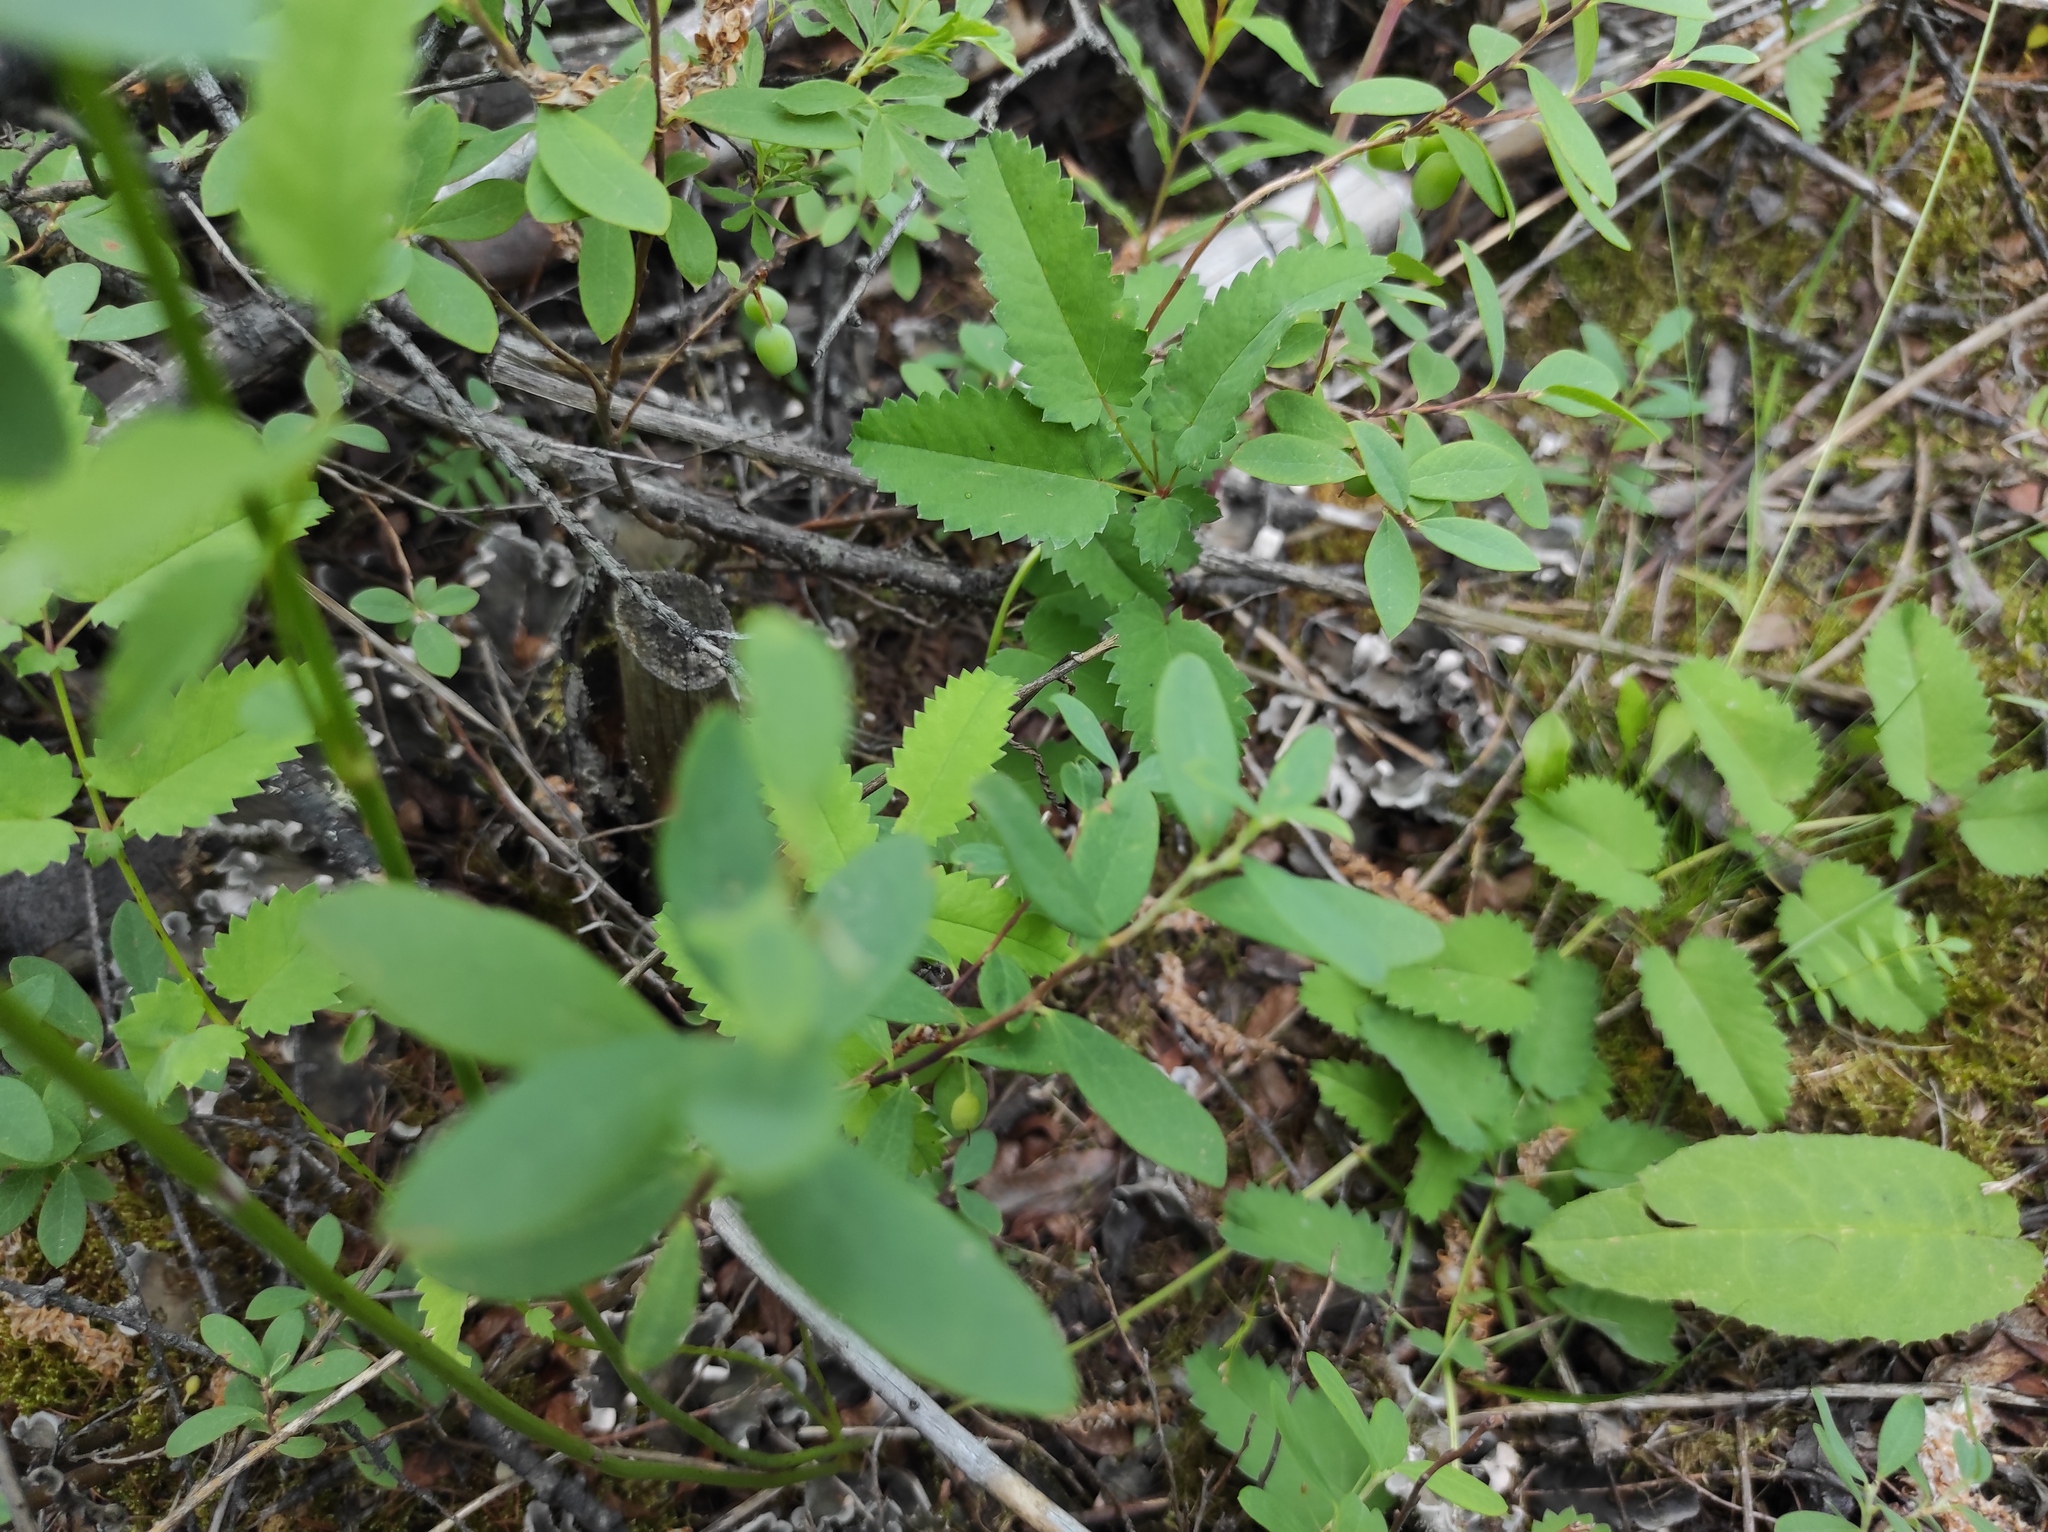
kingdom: Plantae
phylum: Tracheophyta
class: Magnoliopsida
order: Rosales
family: Rosaceae
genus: Sanguisorba
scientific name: Sanguisorba officinalis
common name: Great burnet
